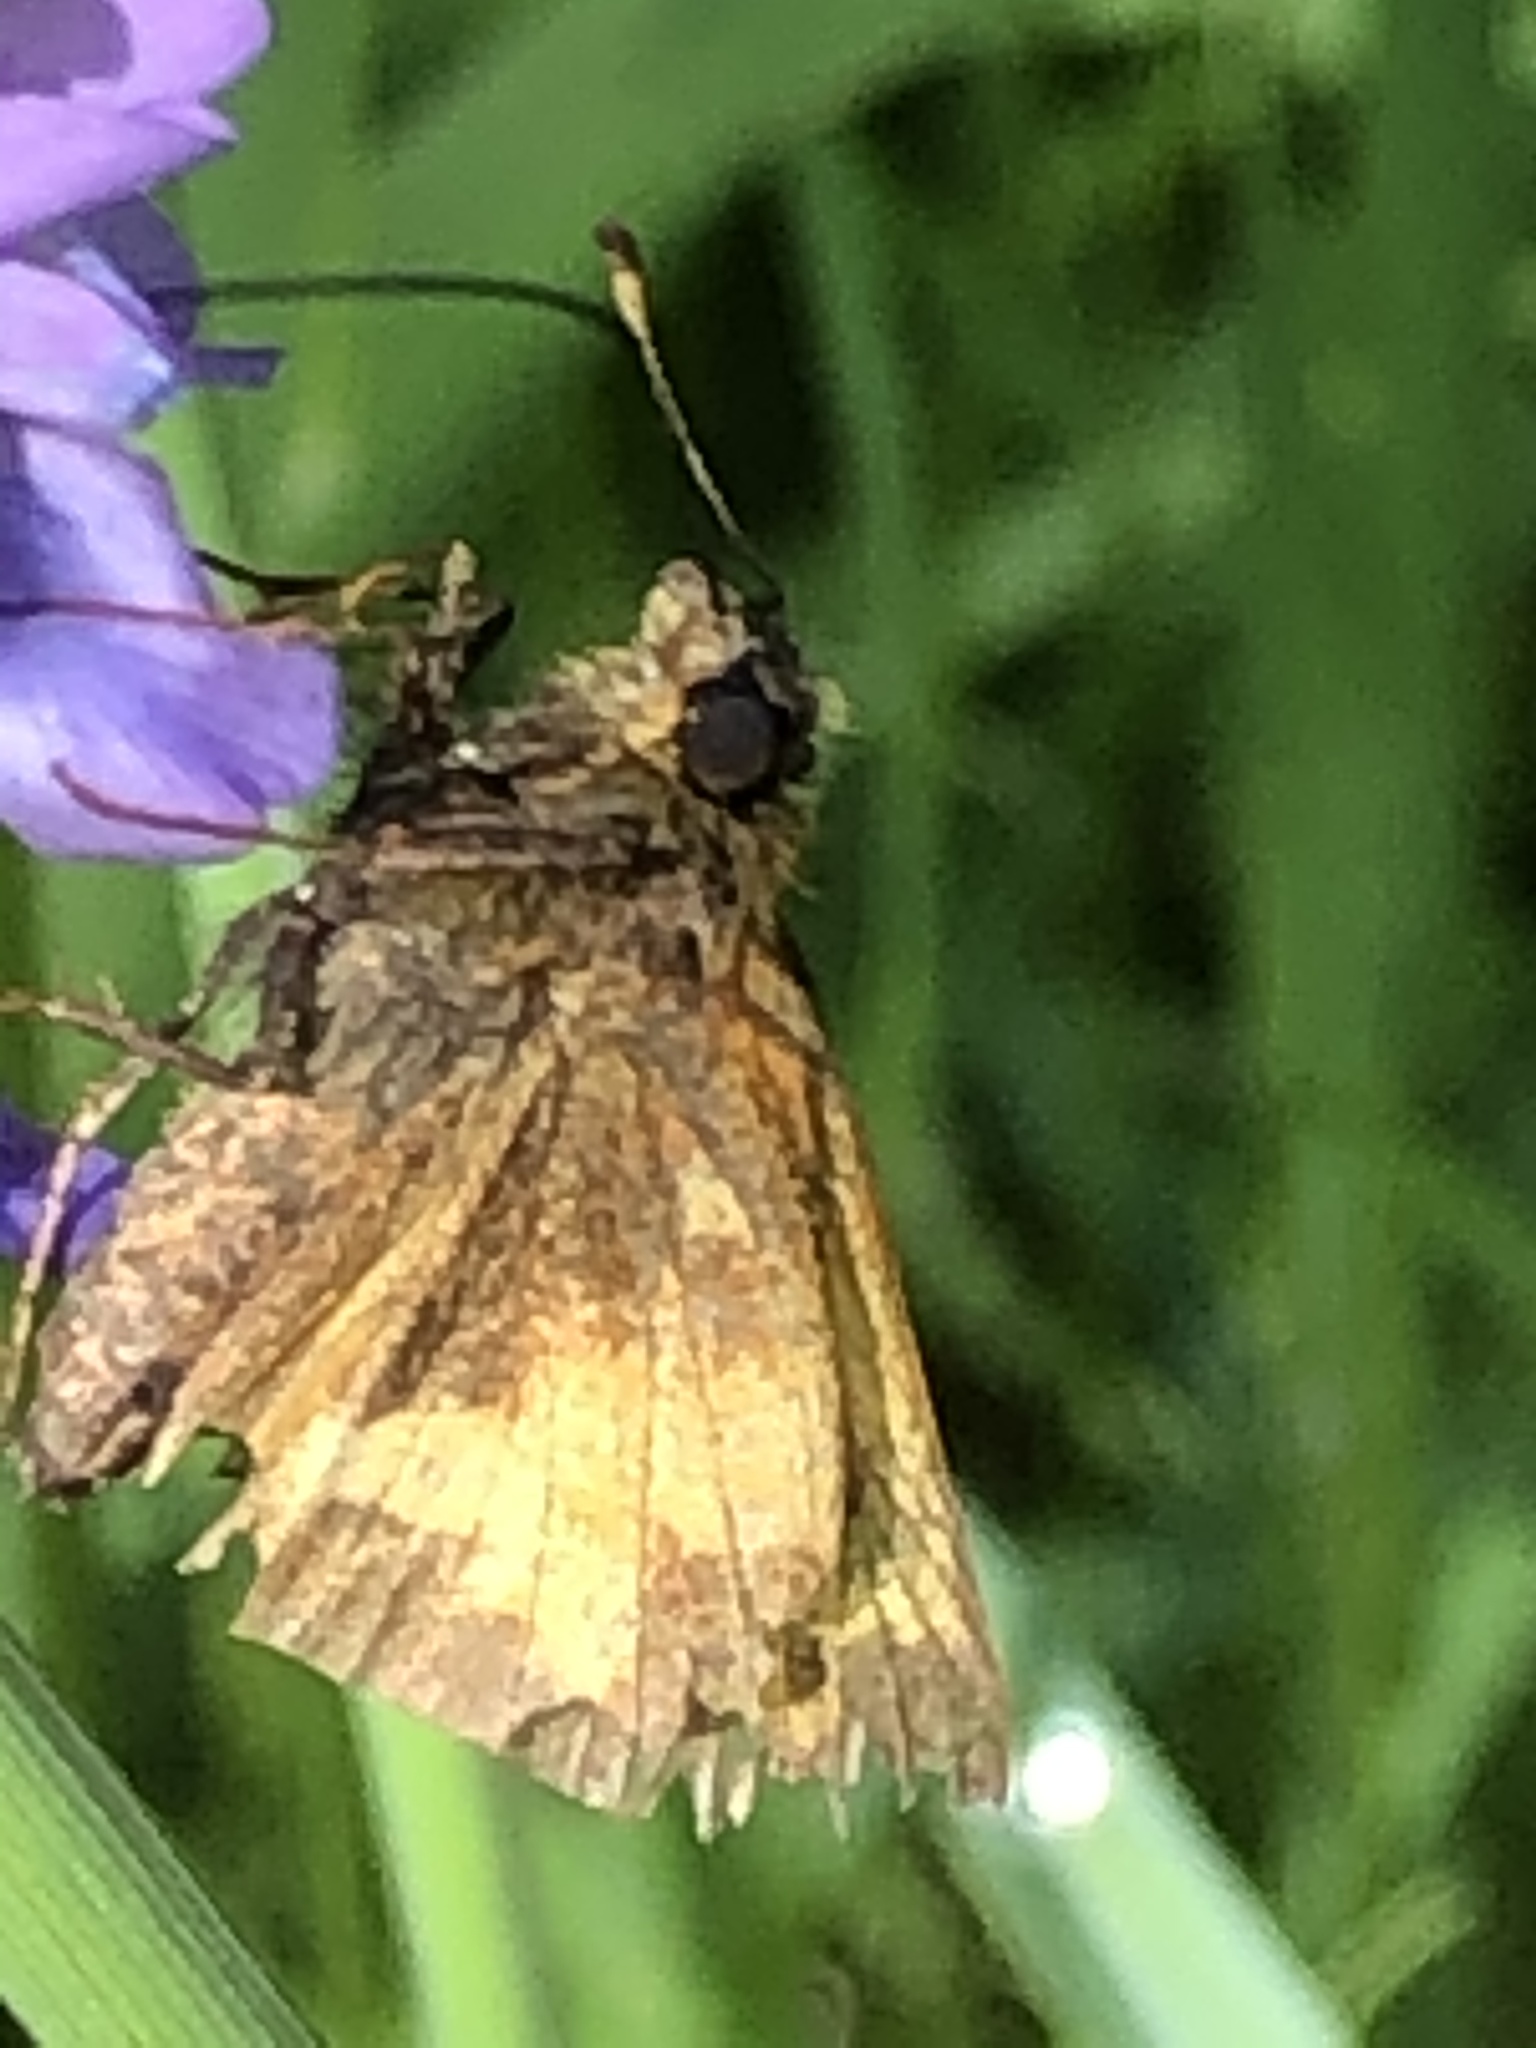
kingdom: Animalia
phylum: Arthropoda
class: Insecta
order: Lepidoptera
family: Hesperiidae
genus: Lon
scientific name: Lon hobomok
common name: Hobomok skipper
